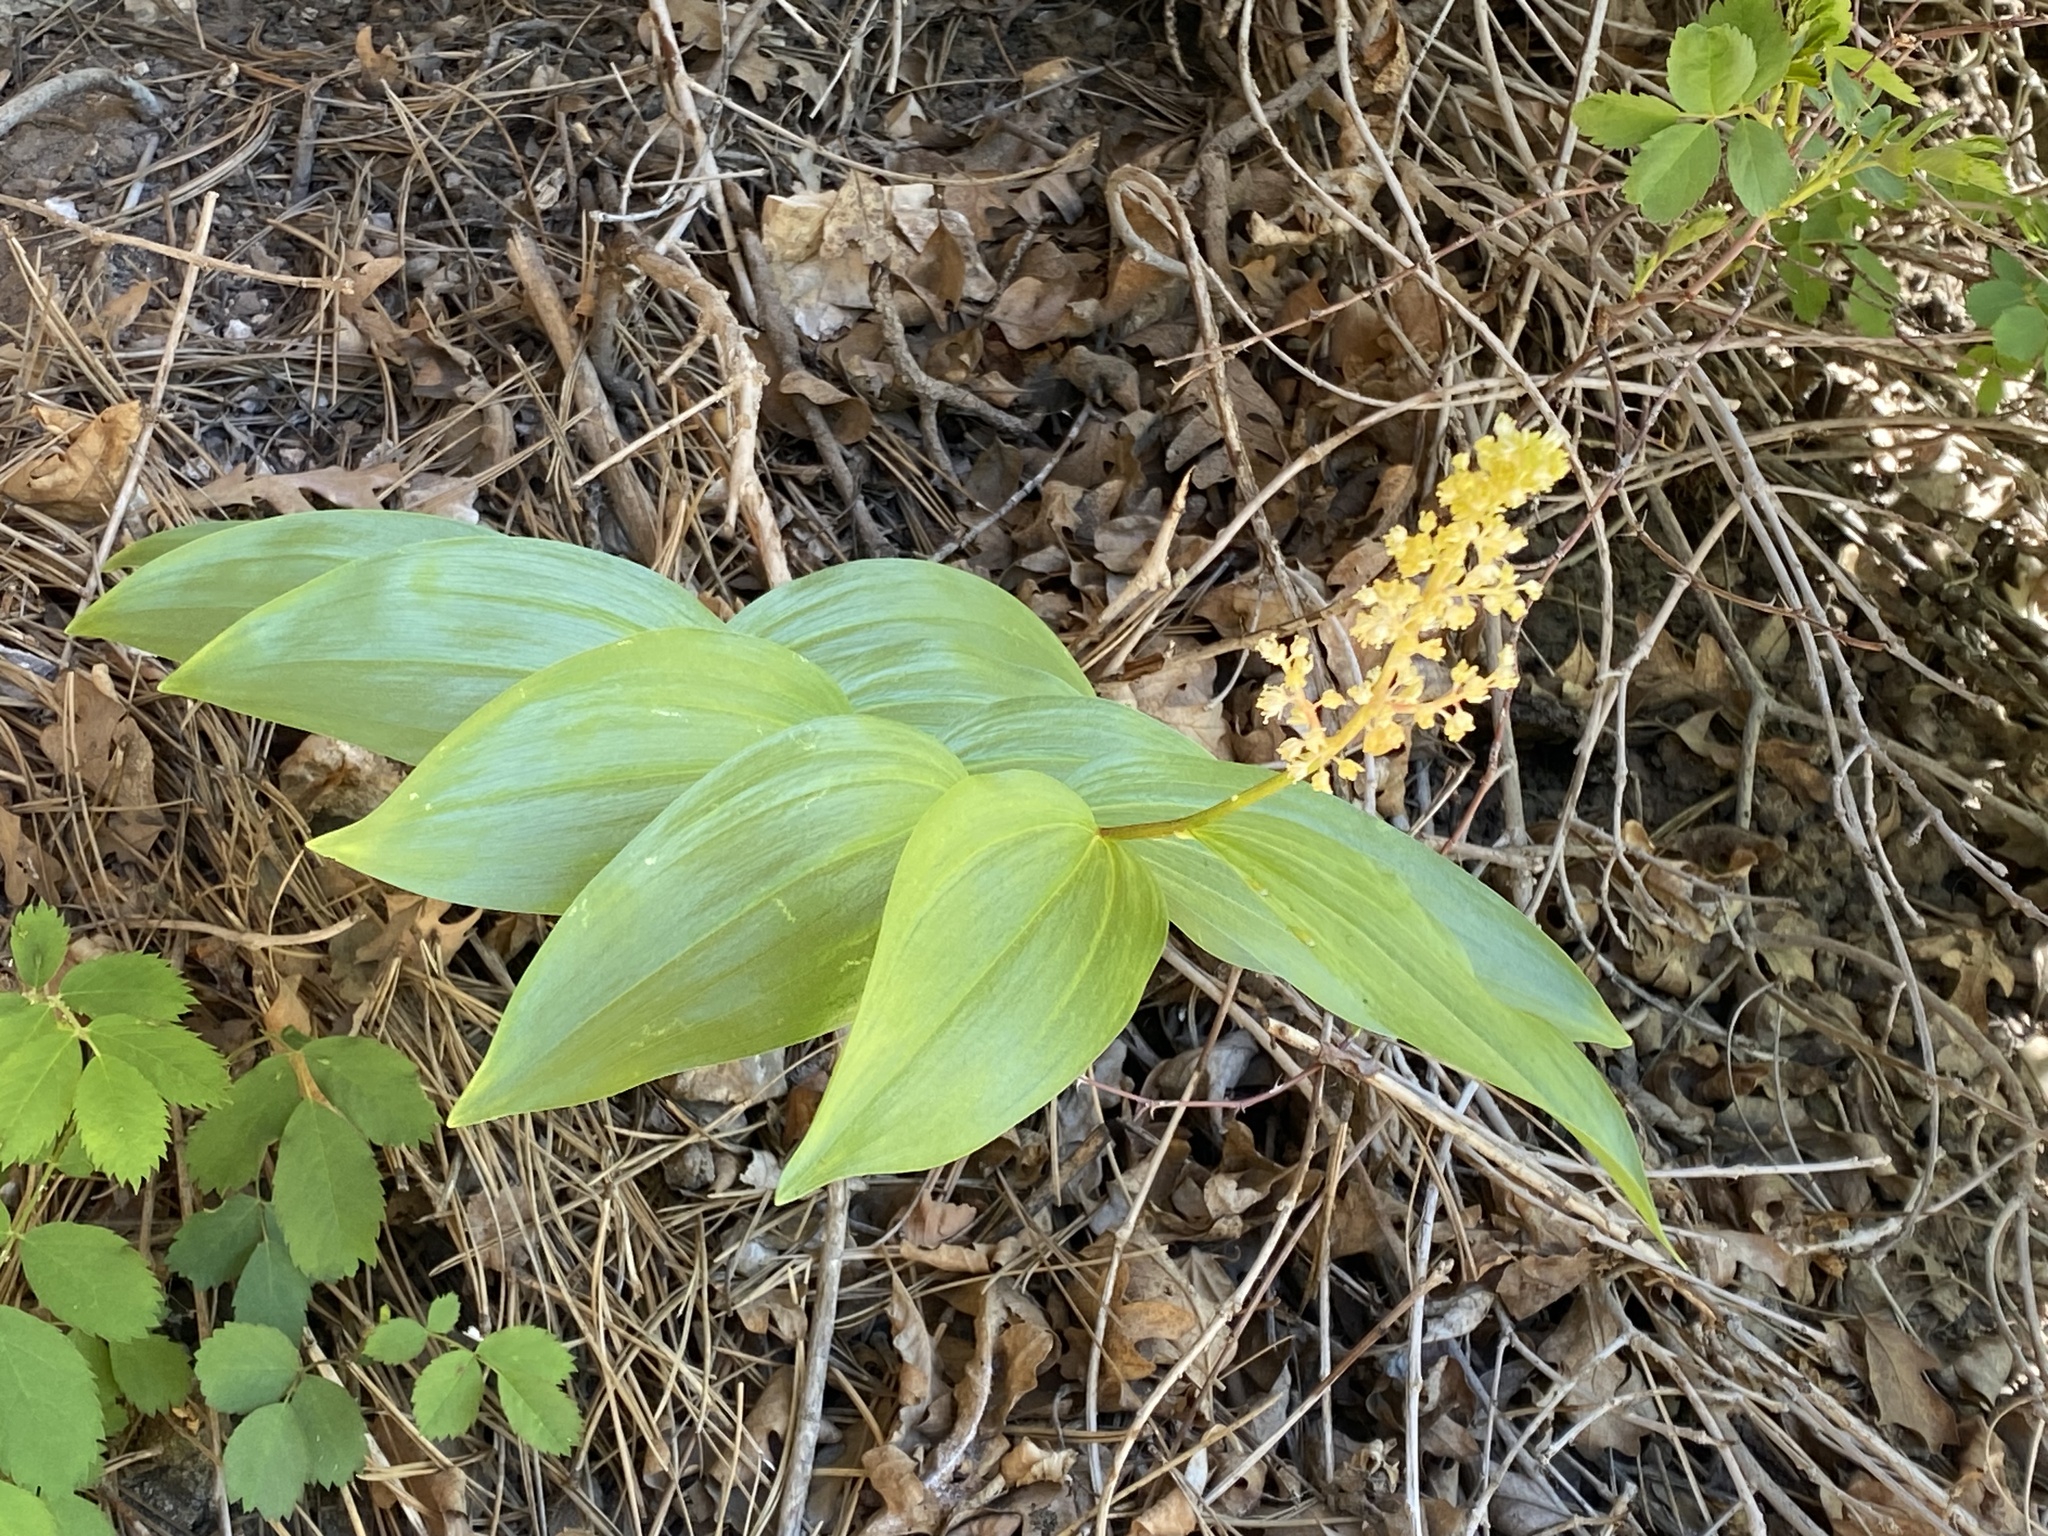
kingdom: Plantae
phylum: Tracheophyta
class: Liliopsida
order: Asparagales
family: Asparagaceae
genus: Maianthemum
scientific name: Maianthemum racemosum
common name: False spikenard
